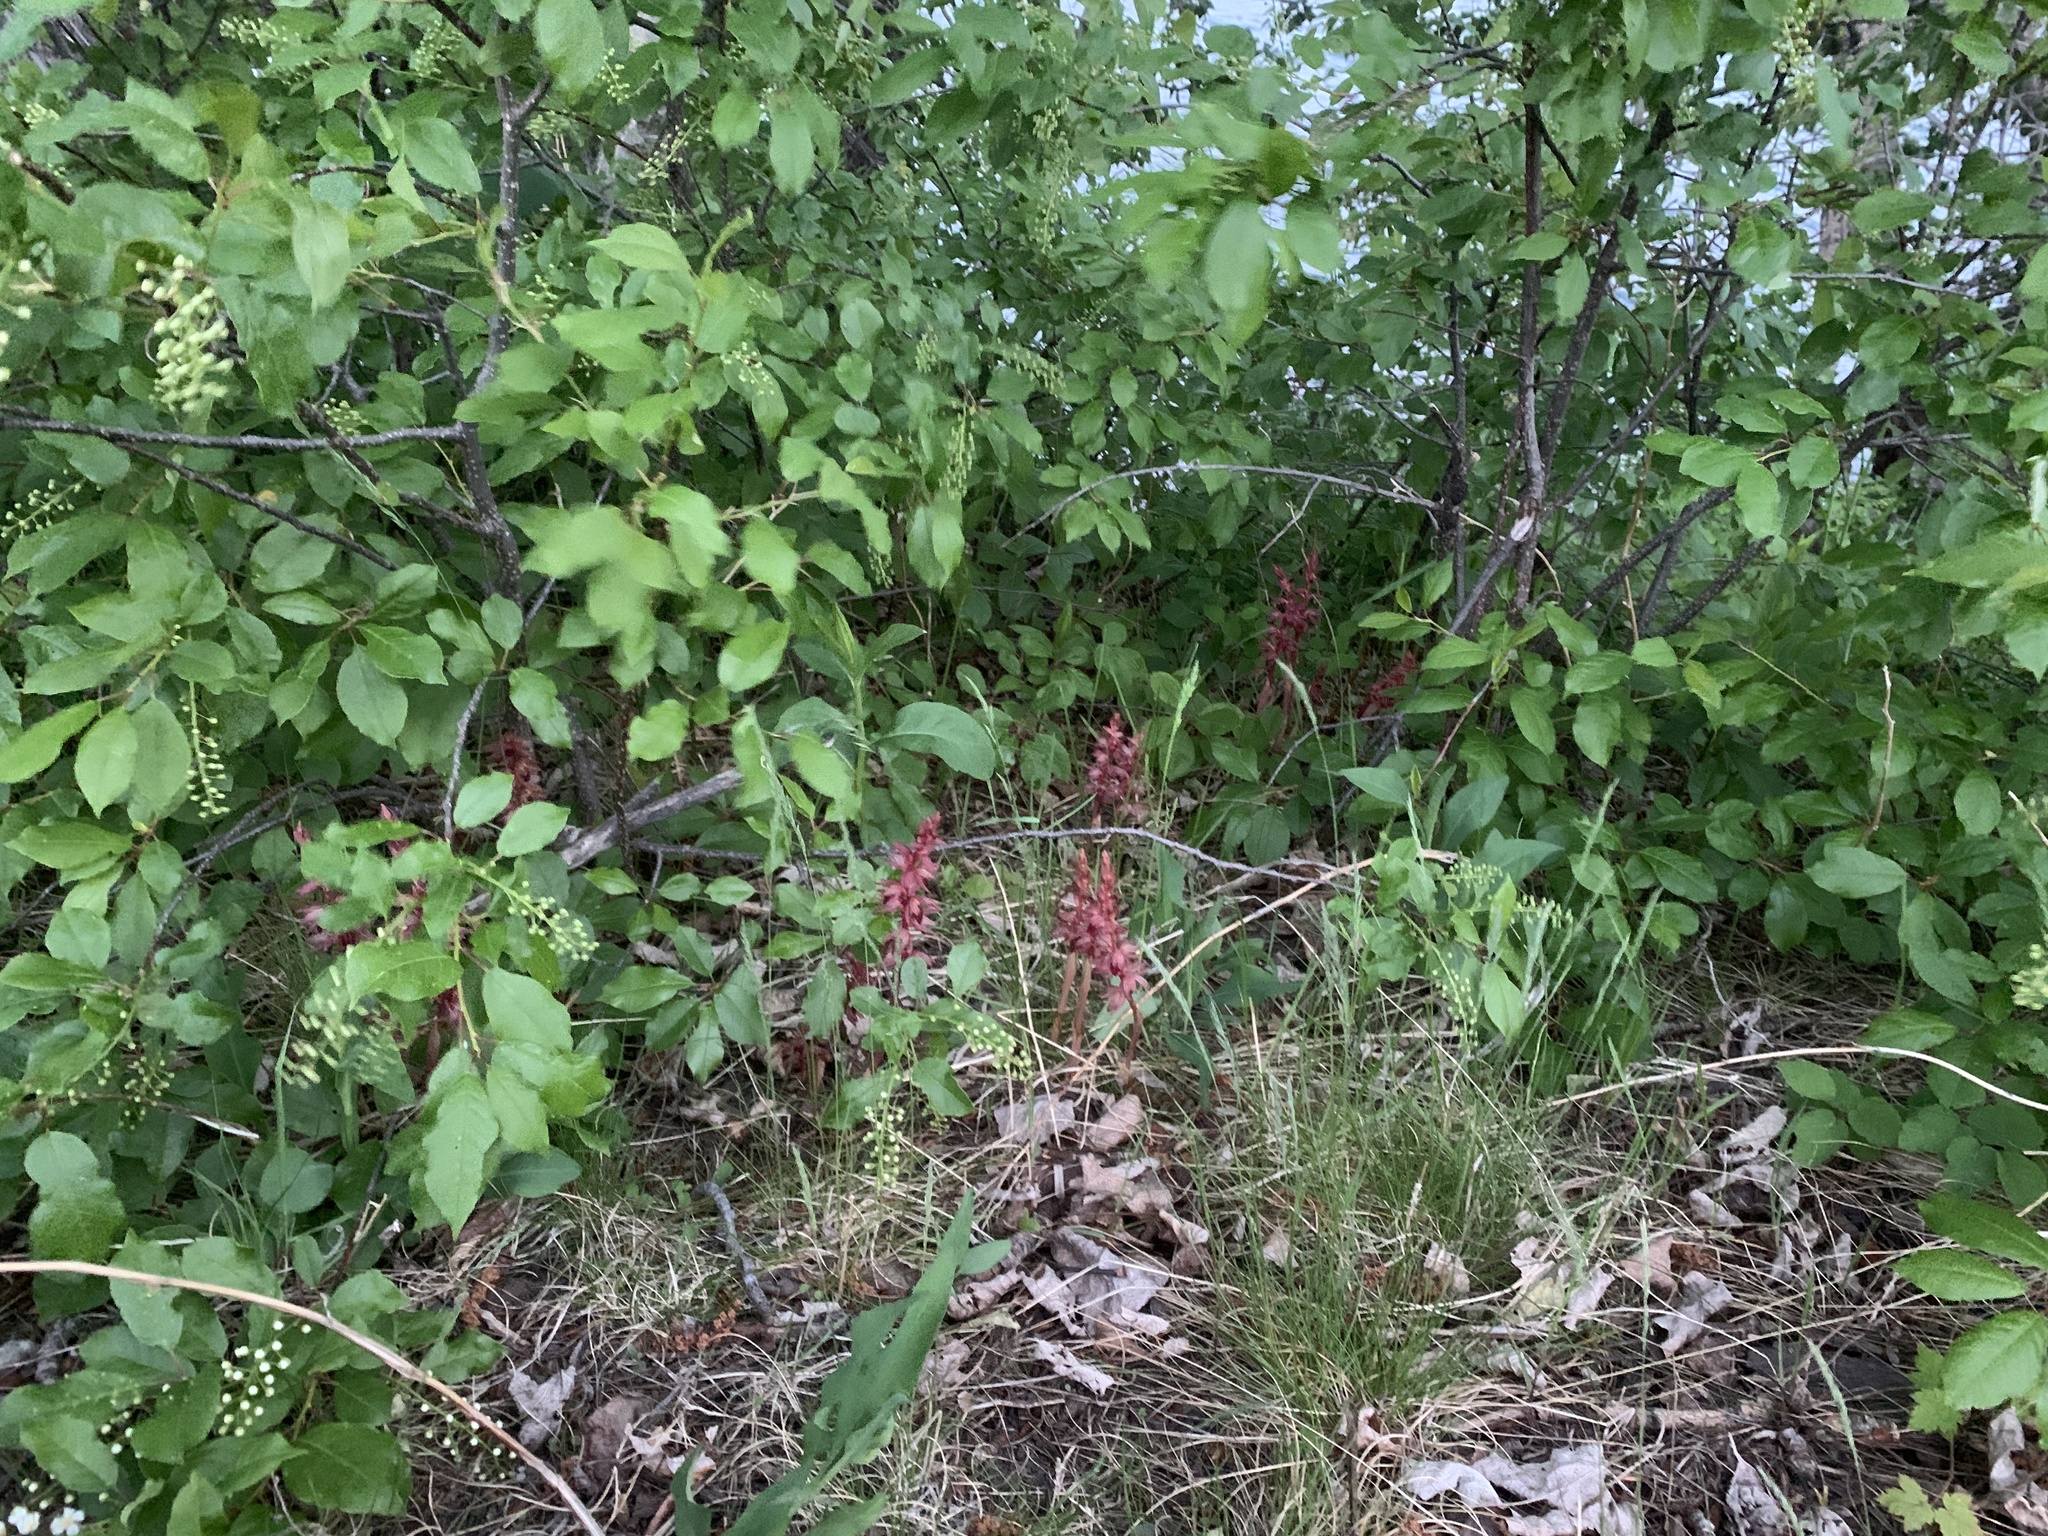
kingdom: Plantae
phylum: Tracheophyta
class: Liliopsida
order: Asparagales
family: Orchidaceae
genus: Corallorhiza
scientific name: Corallorhiza striata
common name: Hooded coralroot
